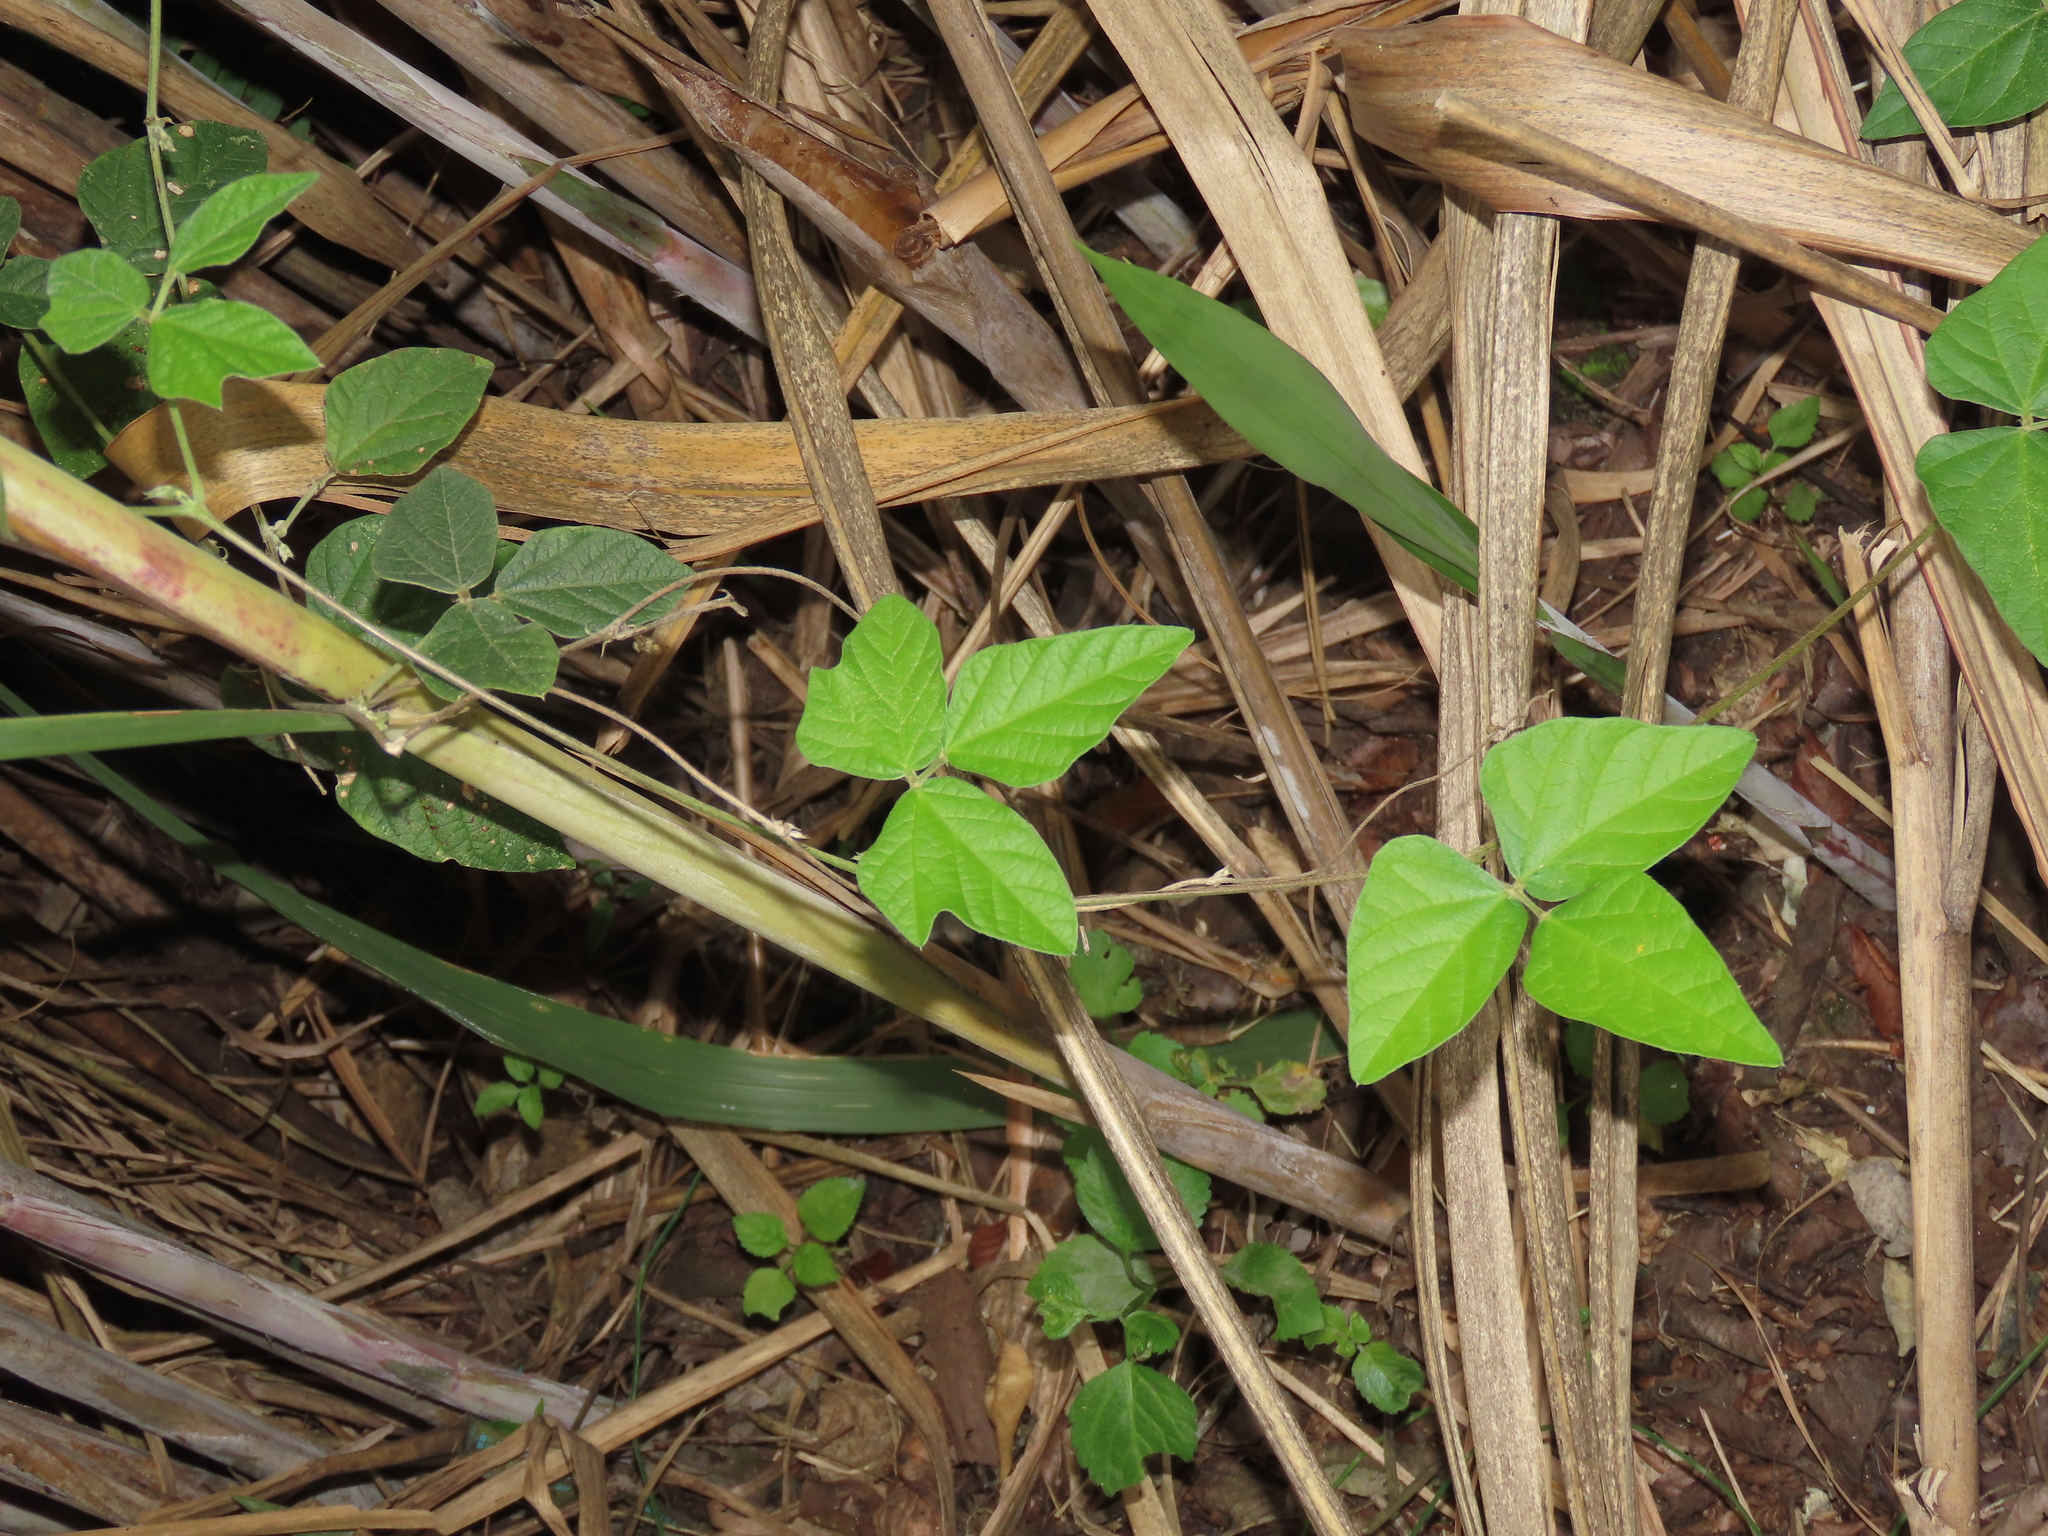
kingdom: Plantae
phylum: Tracheophyta
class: Magnoliopsida
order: Fabales
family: Fabaceae
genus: Macroptilium
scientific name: Macroptilium atropurpureum
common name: Purple bushbean
